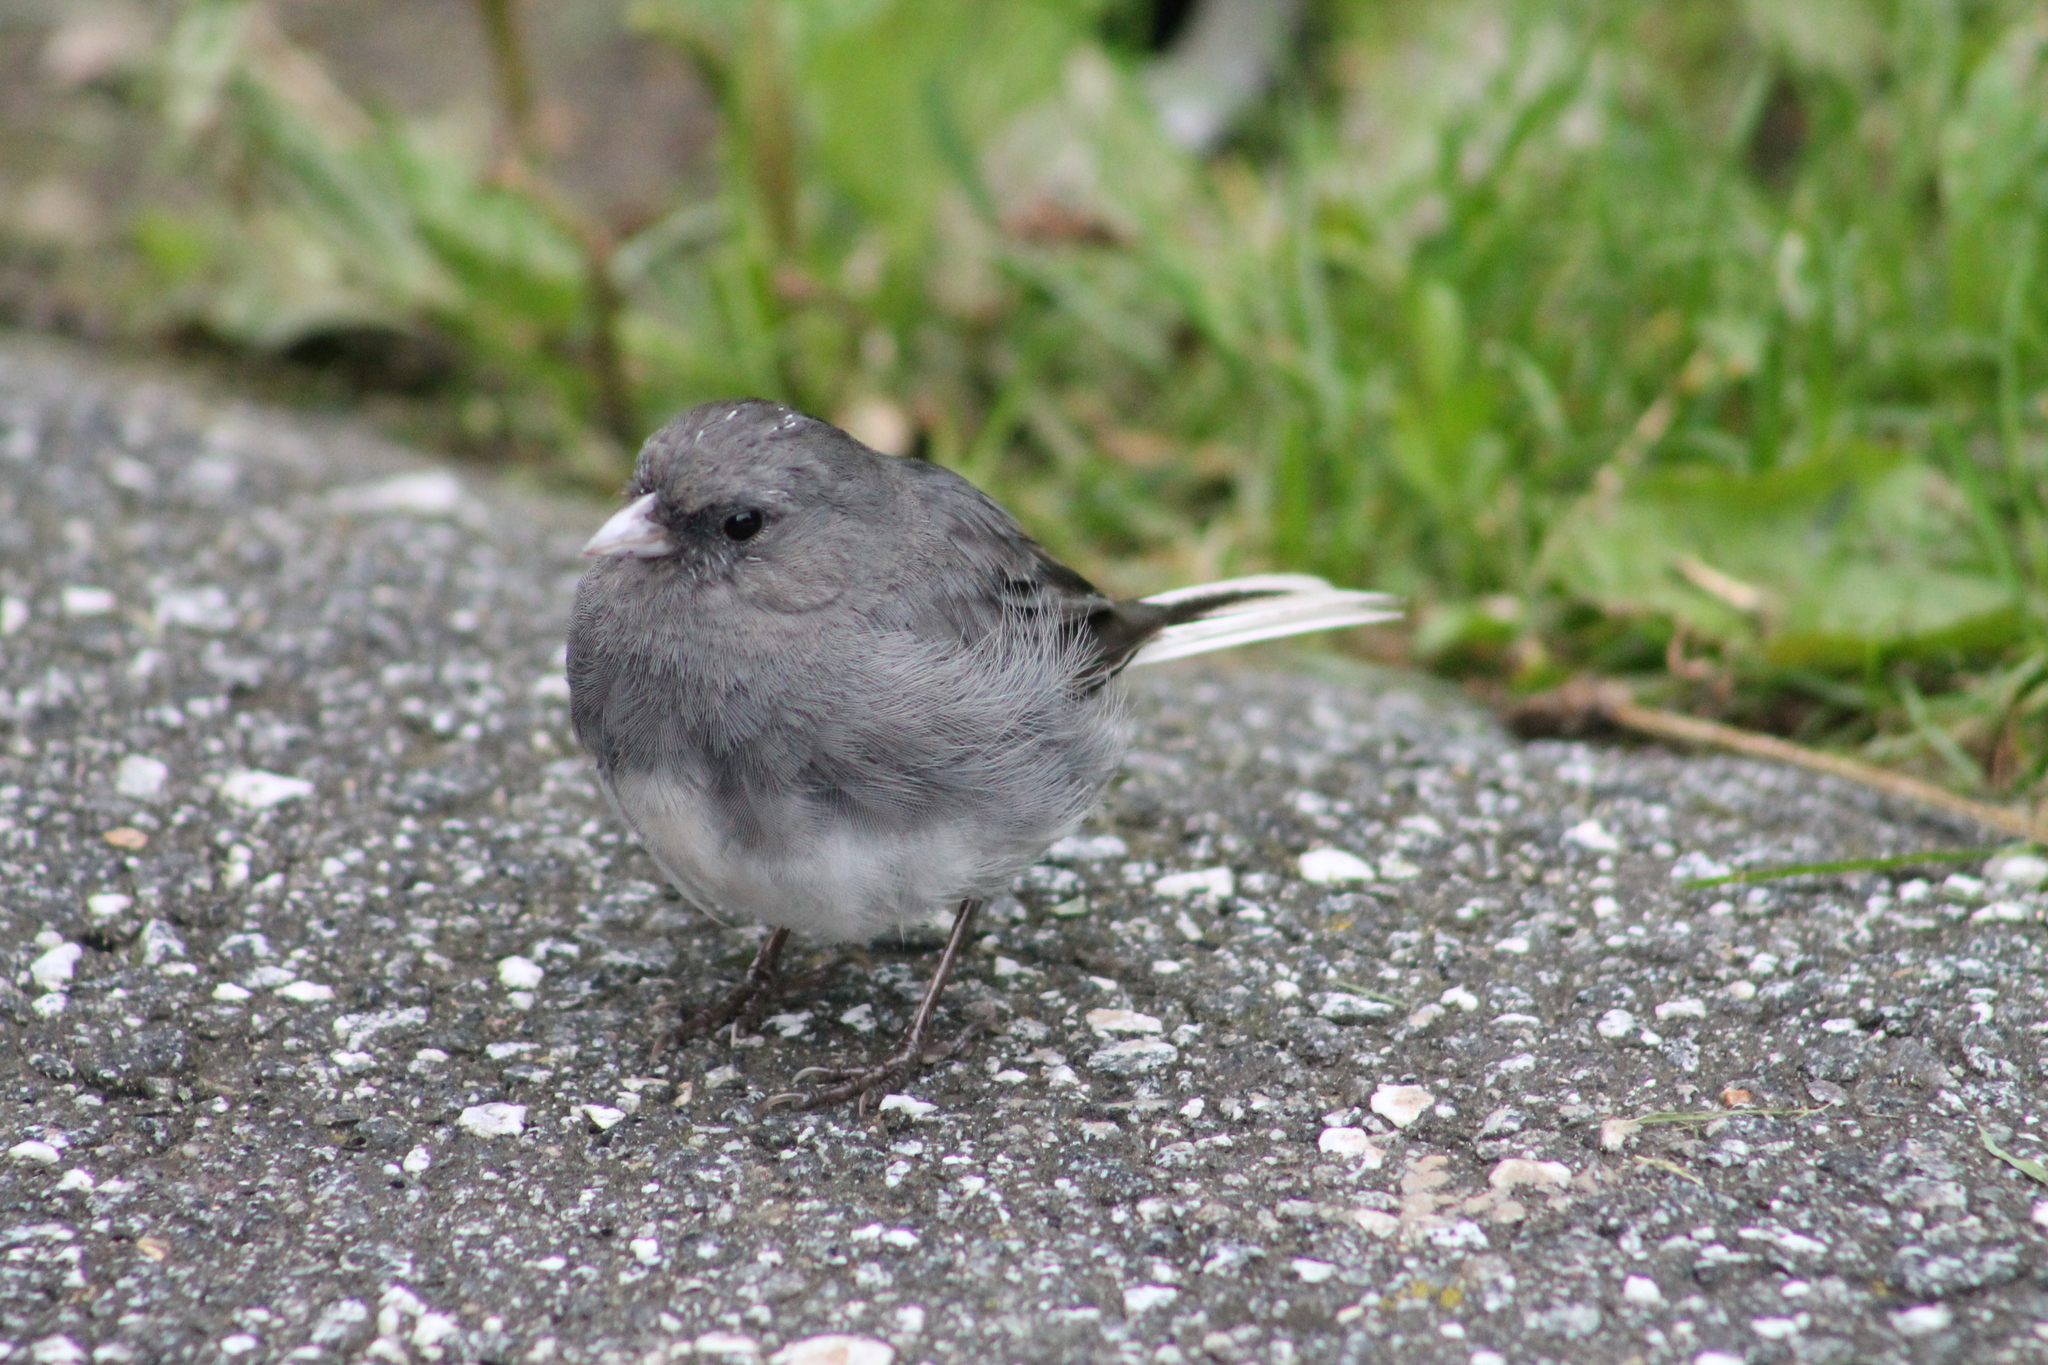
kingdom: Animalia
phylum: Chordata
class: Aves
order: Passeriformes
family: Passerellidae
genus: Junco
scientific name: Junco hyemalis
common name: Dark-eyed junco
